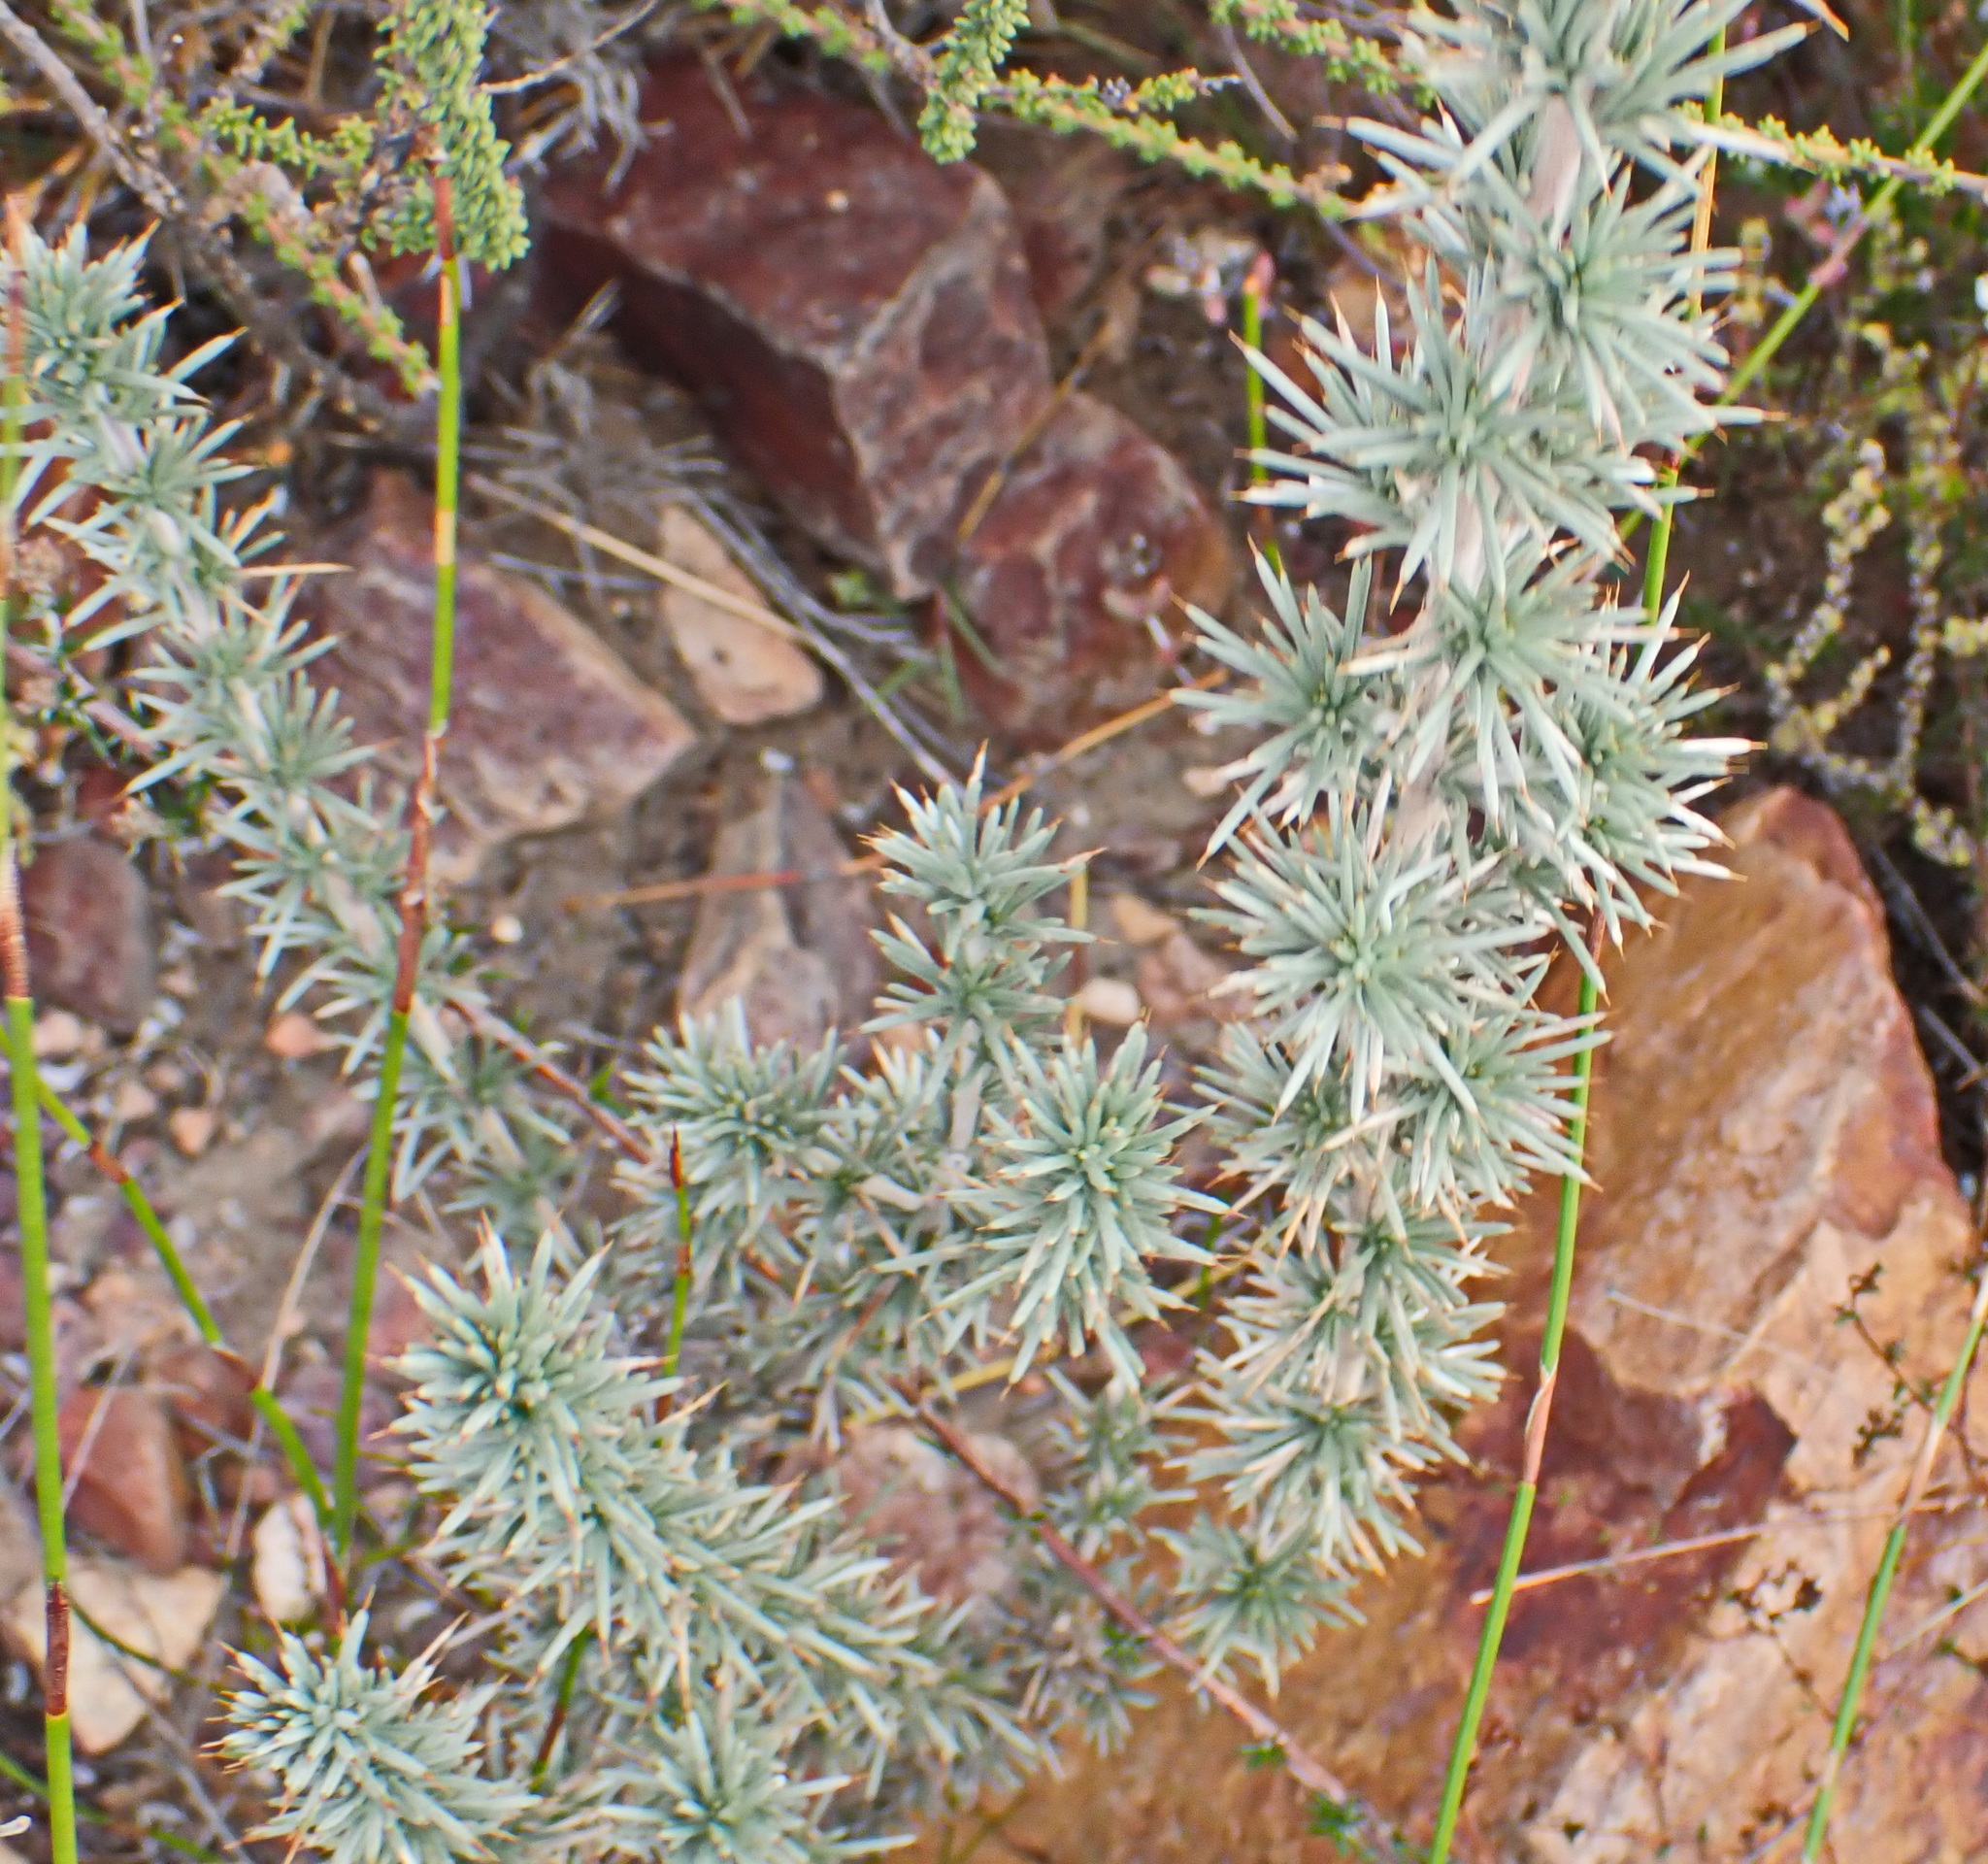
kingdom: Plantae
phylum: Tracheophyta
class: Magnoliopsida
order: Fabales
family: Fabaceae
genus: Aspalathus
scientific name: Aspalathus hystrix
